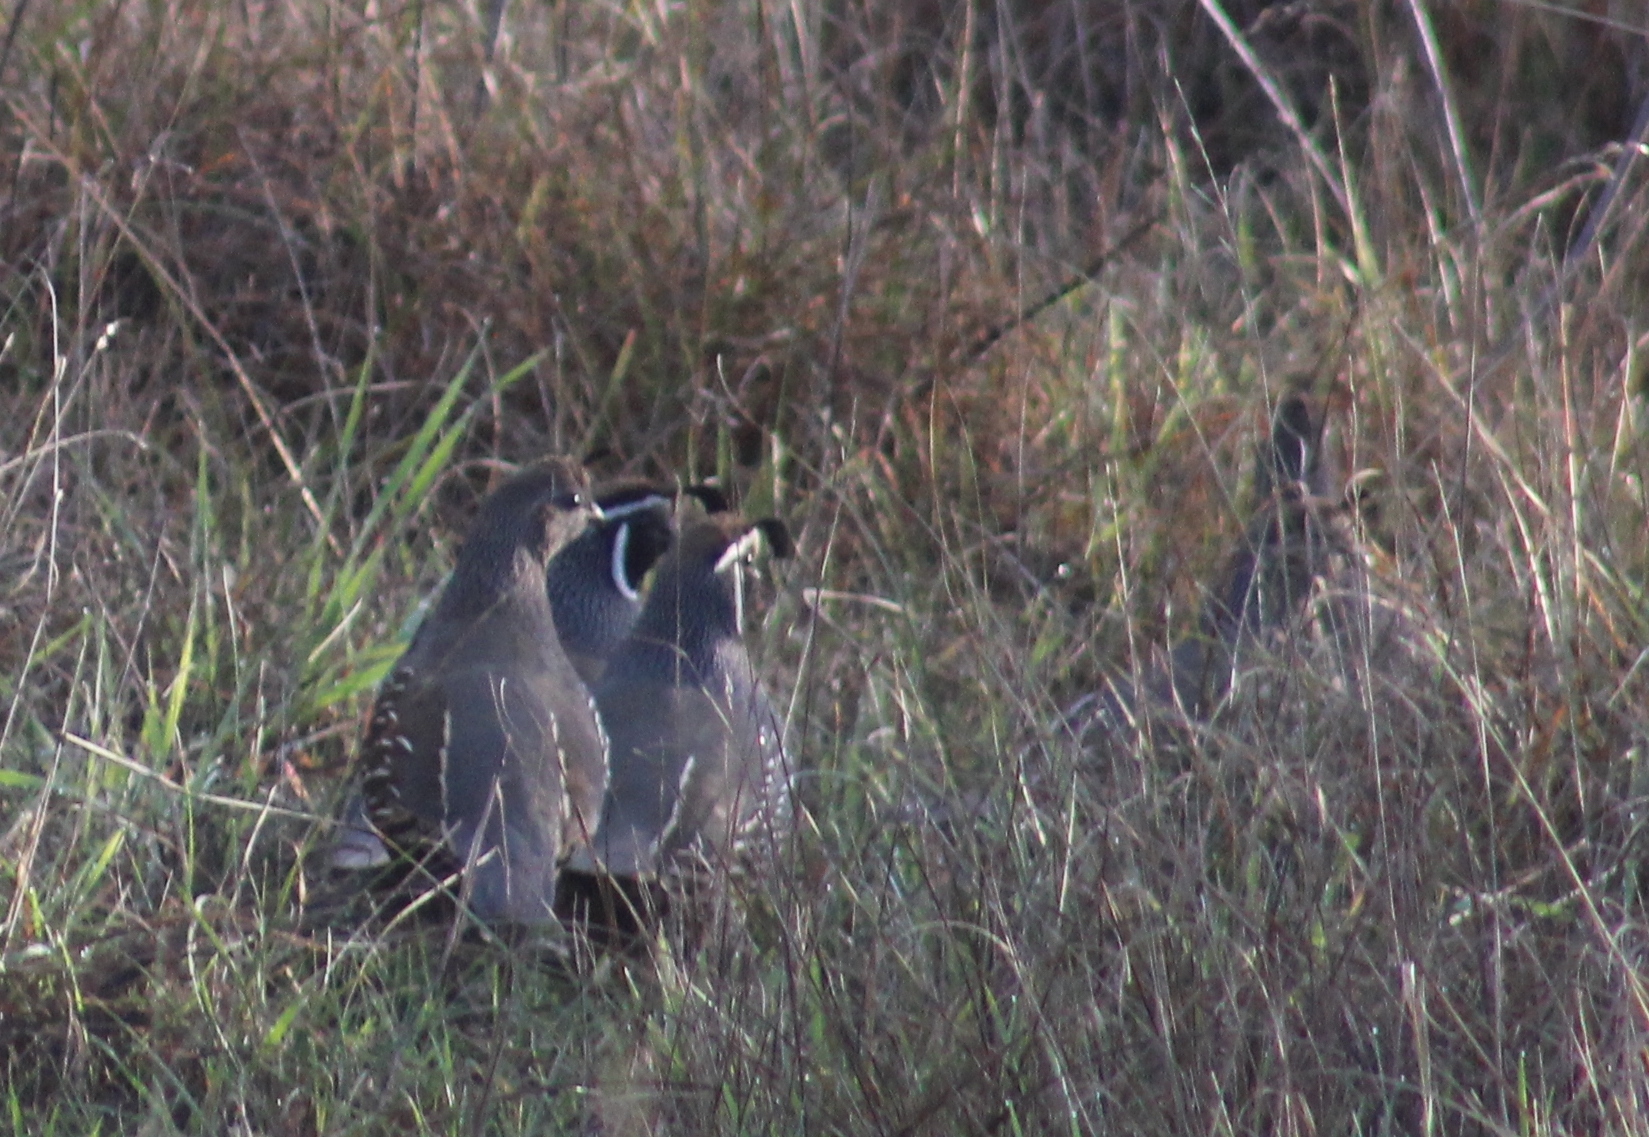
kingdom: Animalia
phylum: Chordata
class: Aves
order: Galliformes
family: Odontophoridae
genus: Callipepla
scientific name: Callipepla californica
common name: California quail
